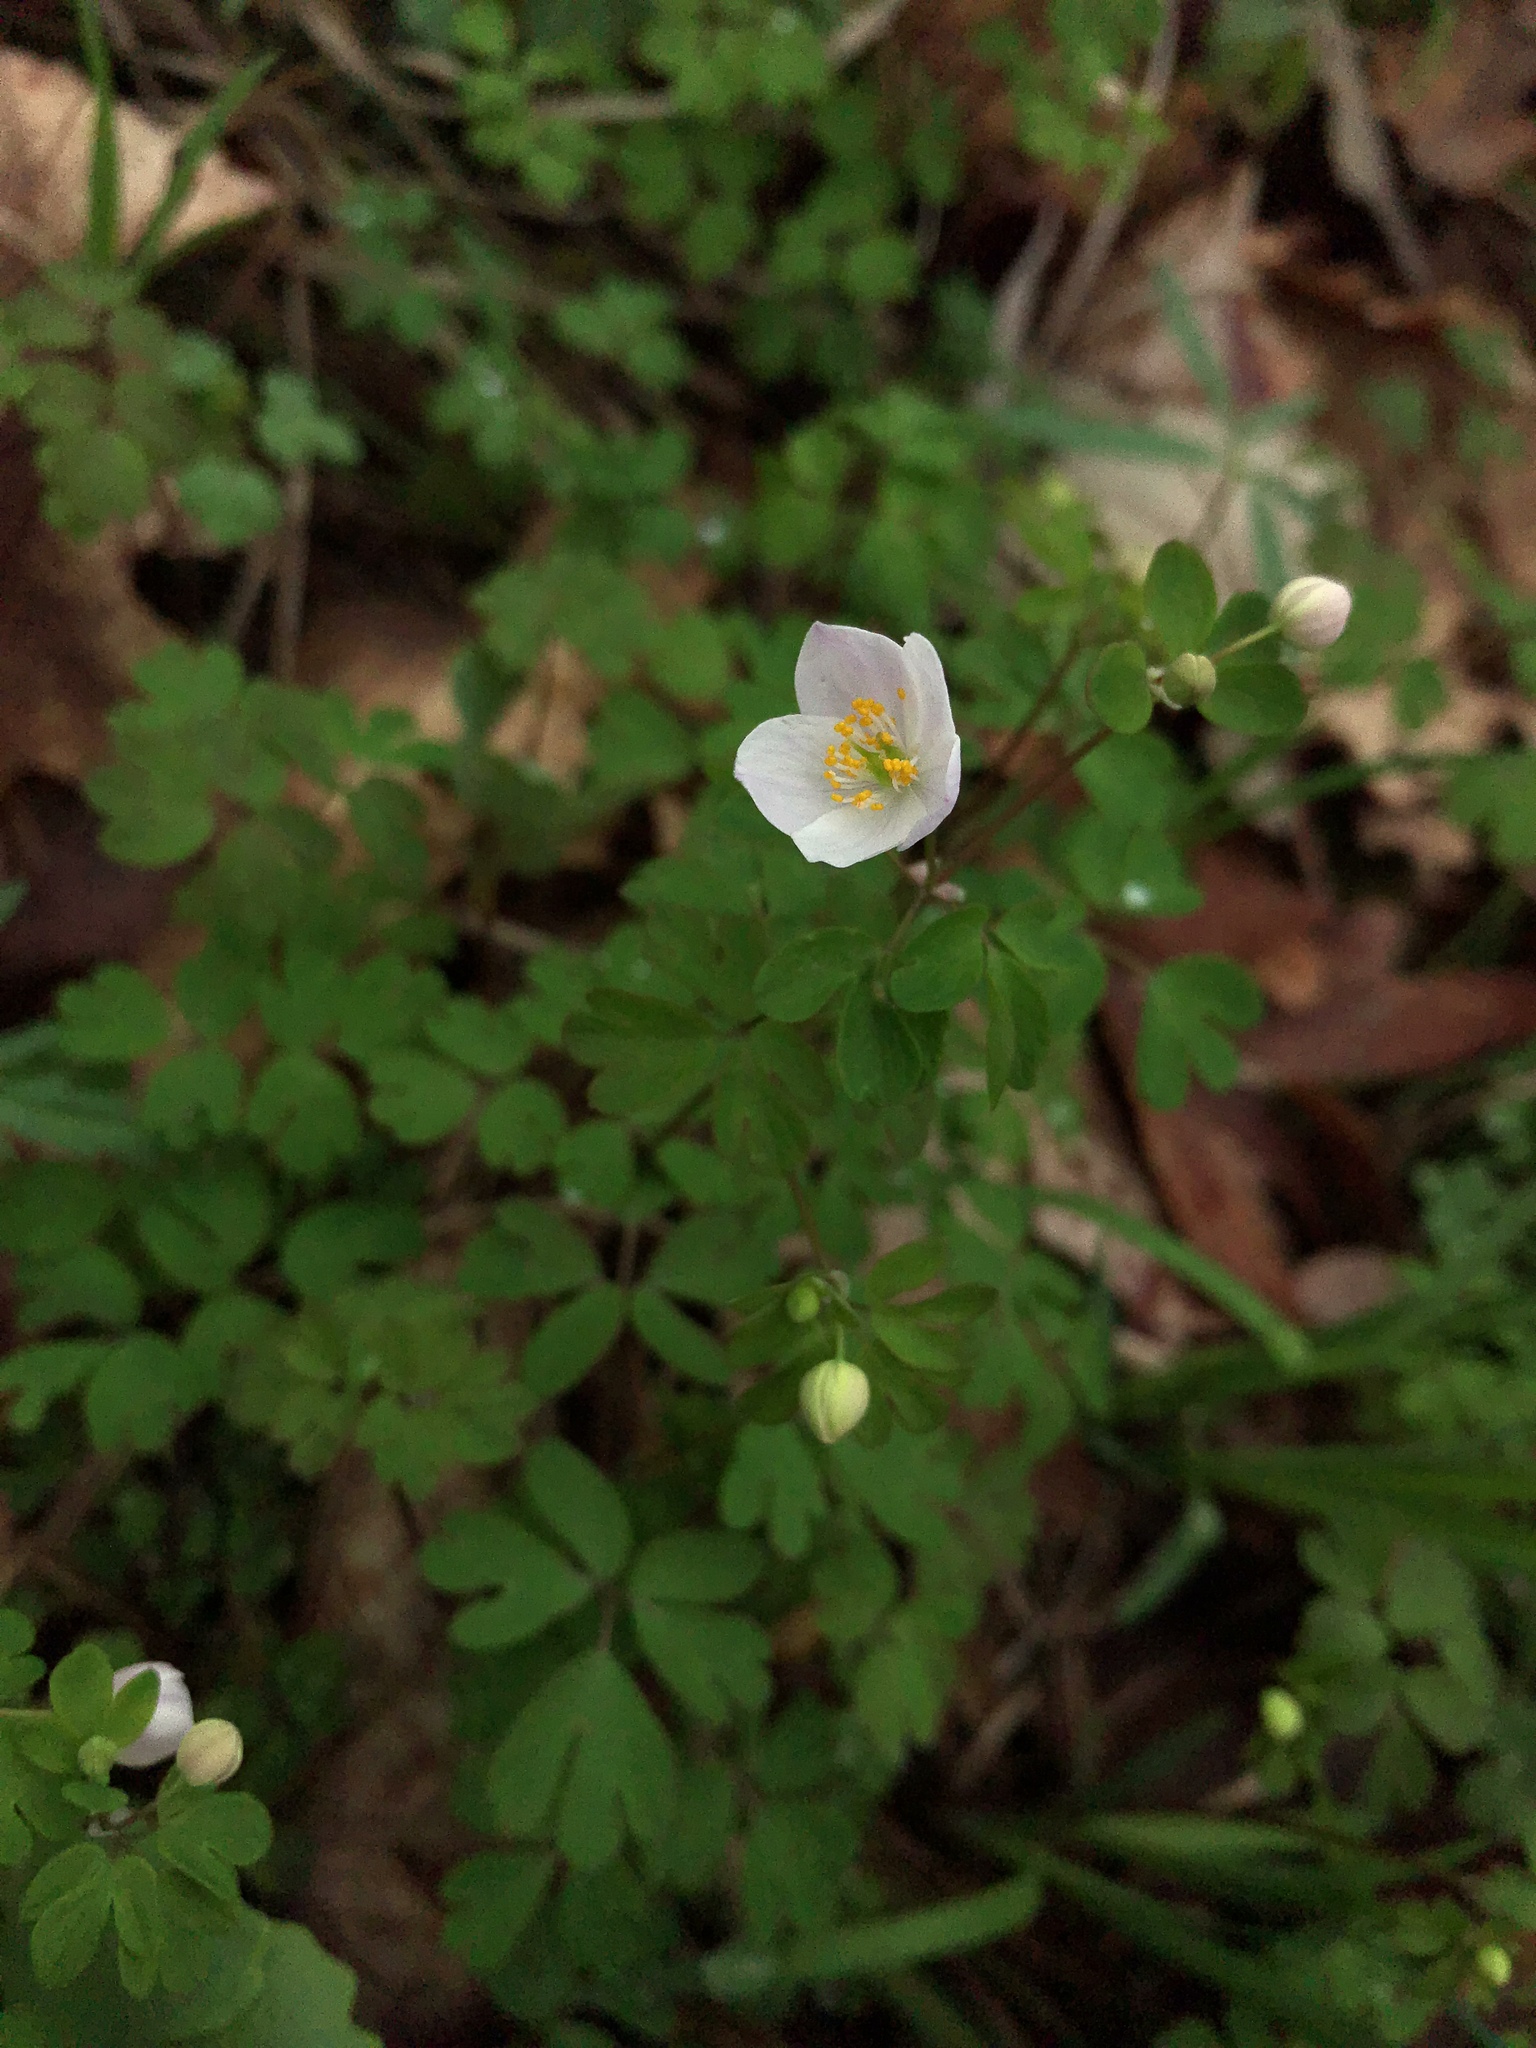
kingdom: Plantae
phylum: Tracheophyta
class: Magnoliopsida
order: Ranunculales
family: Ranunculaceae
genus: Enemion
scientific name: Enemion biternatum
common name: Eastern false rue-anemone
